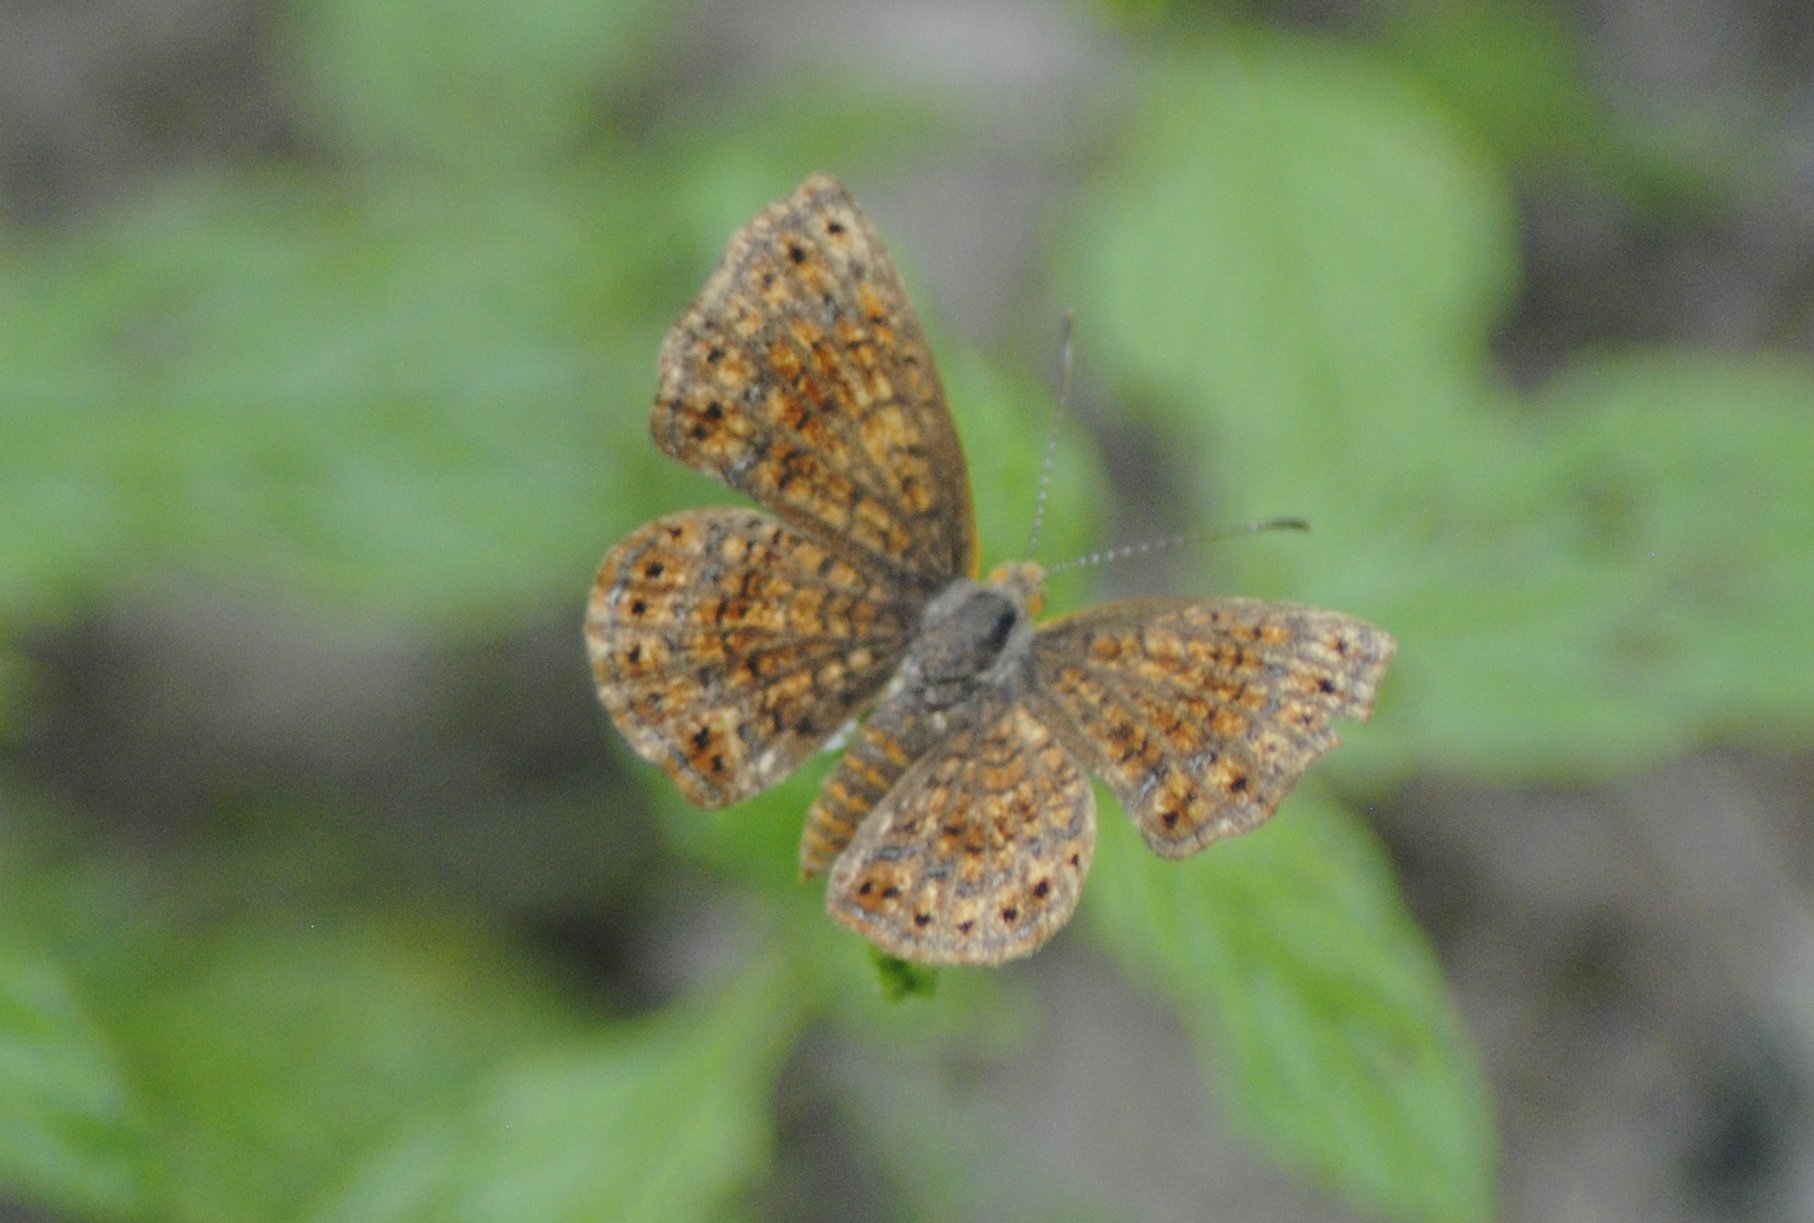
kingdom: Animalia
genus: Calephelis
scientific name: Calephelis perditalis
